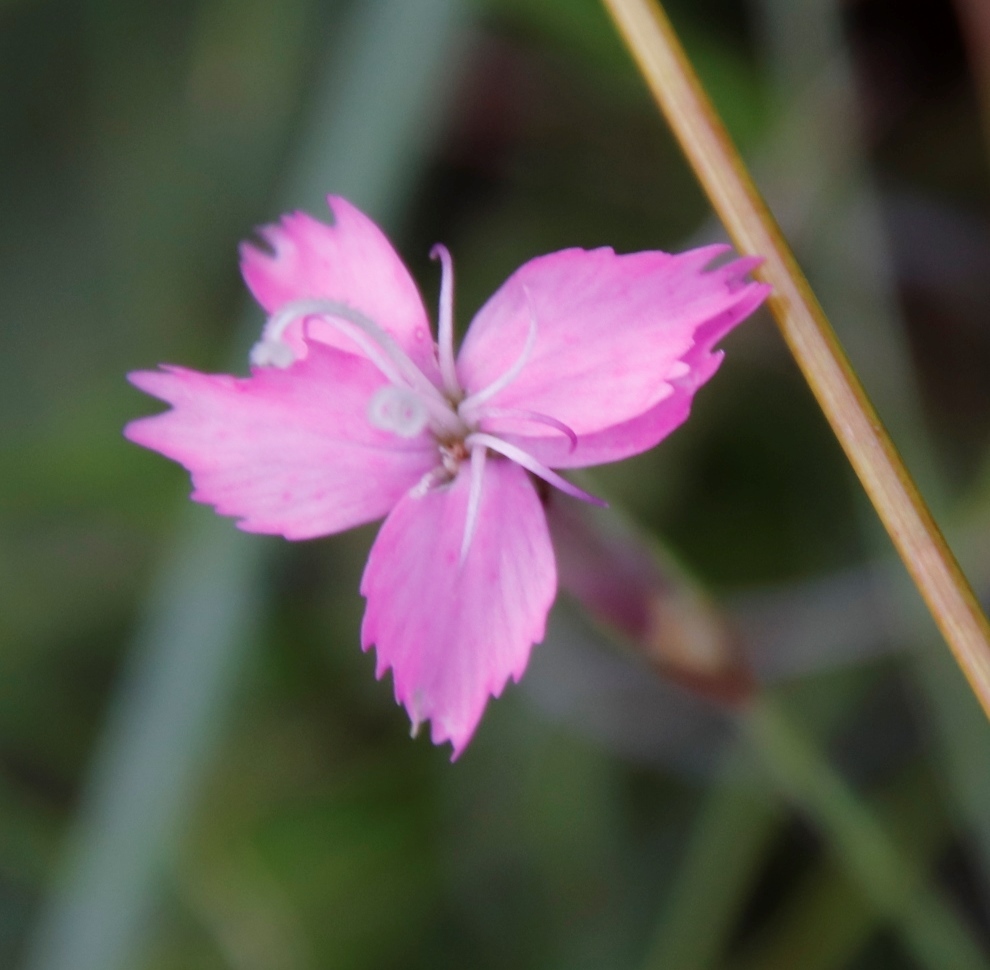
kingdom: Plantae
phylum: Tracheophyta
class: Magnoliopsida
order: Caryophyllales
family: Caryophyllaceae
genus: Dianthus
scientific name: Dianthus basuticus
